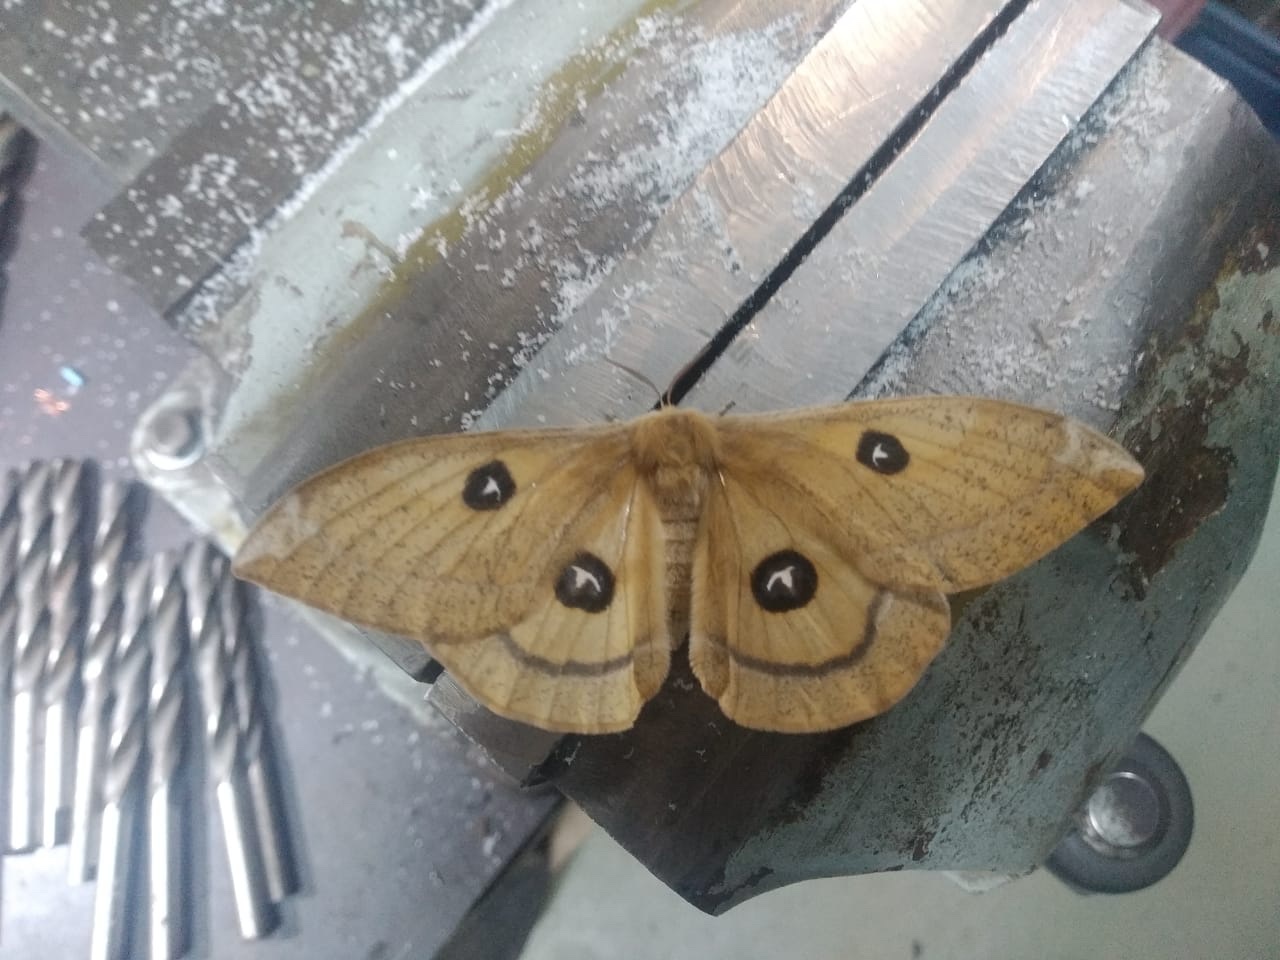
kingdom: Animalia
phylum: Arthropoda
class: Insecta
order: Lepidoptera
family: Saturniidae
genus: Aglia
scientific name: Aglia tau
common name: Tau emperor
